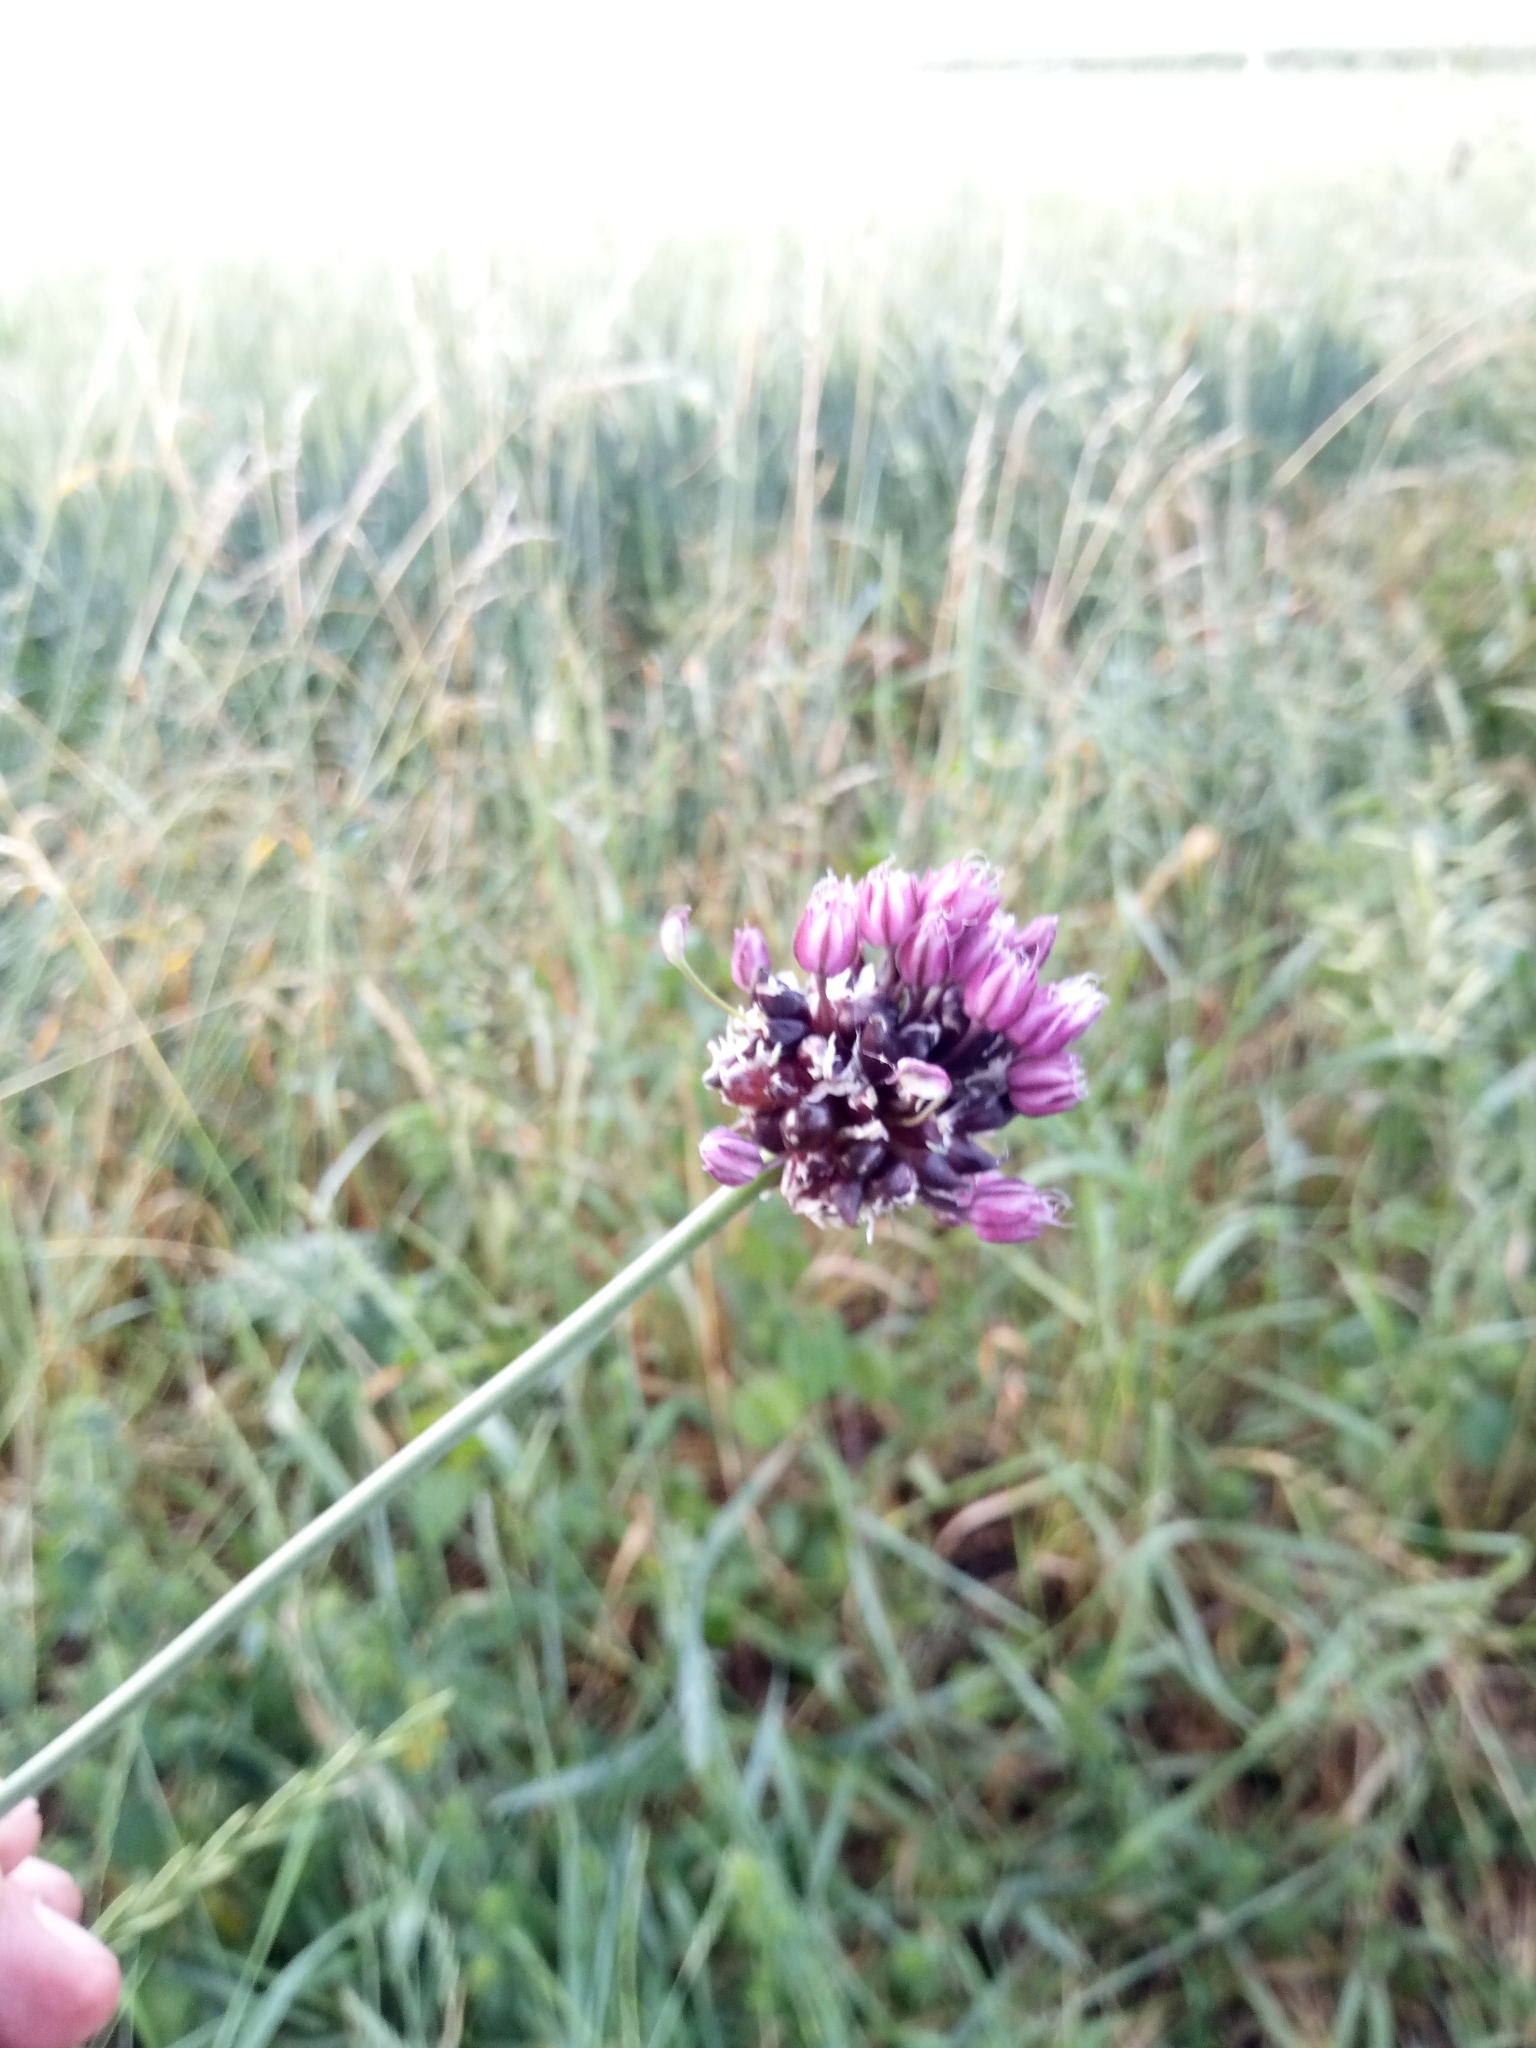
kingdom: Plantae
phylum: Tracheophyta
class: Liliopsida
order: Asparagales
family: Amaryllidaceae
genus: Allium
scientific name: Allium scorodoprasum
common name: Sand leek
